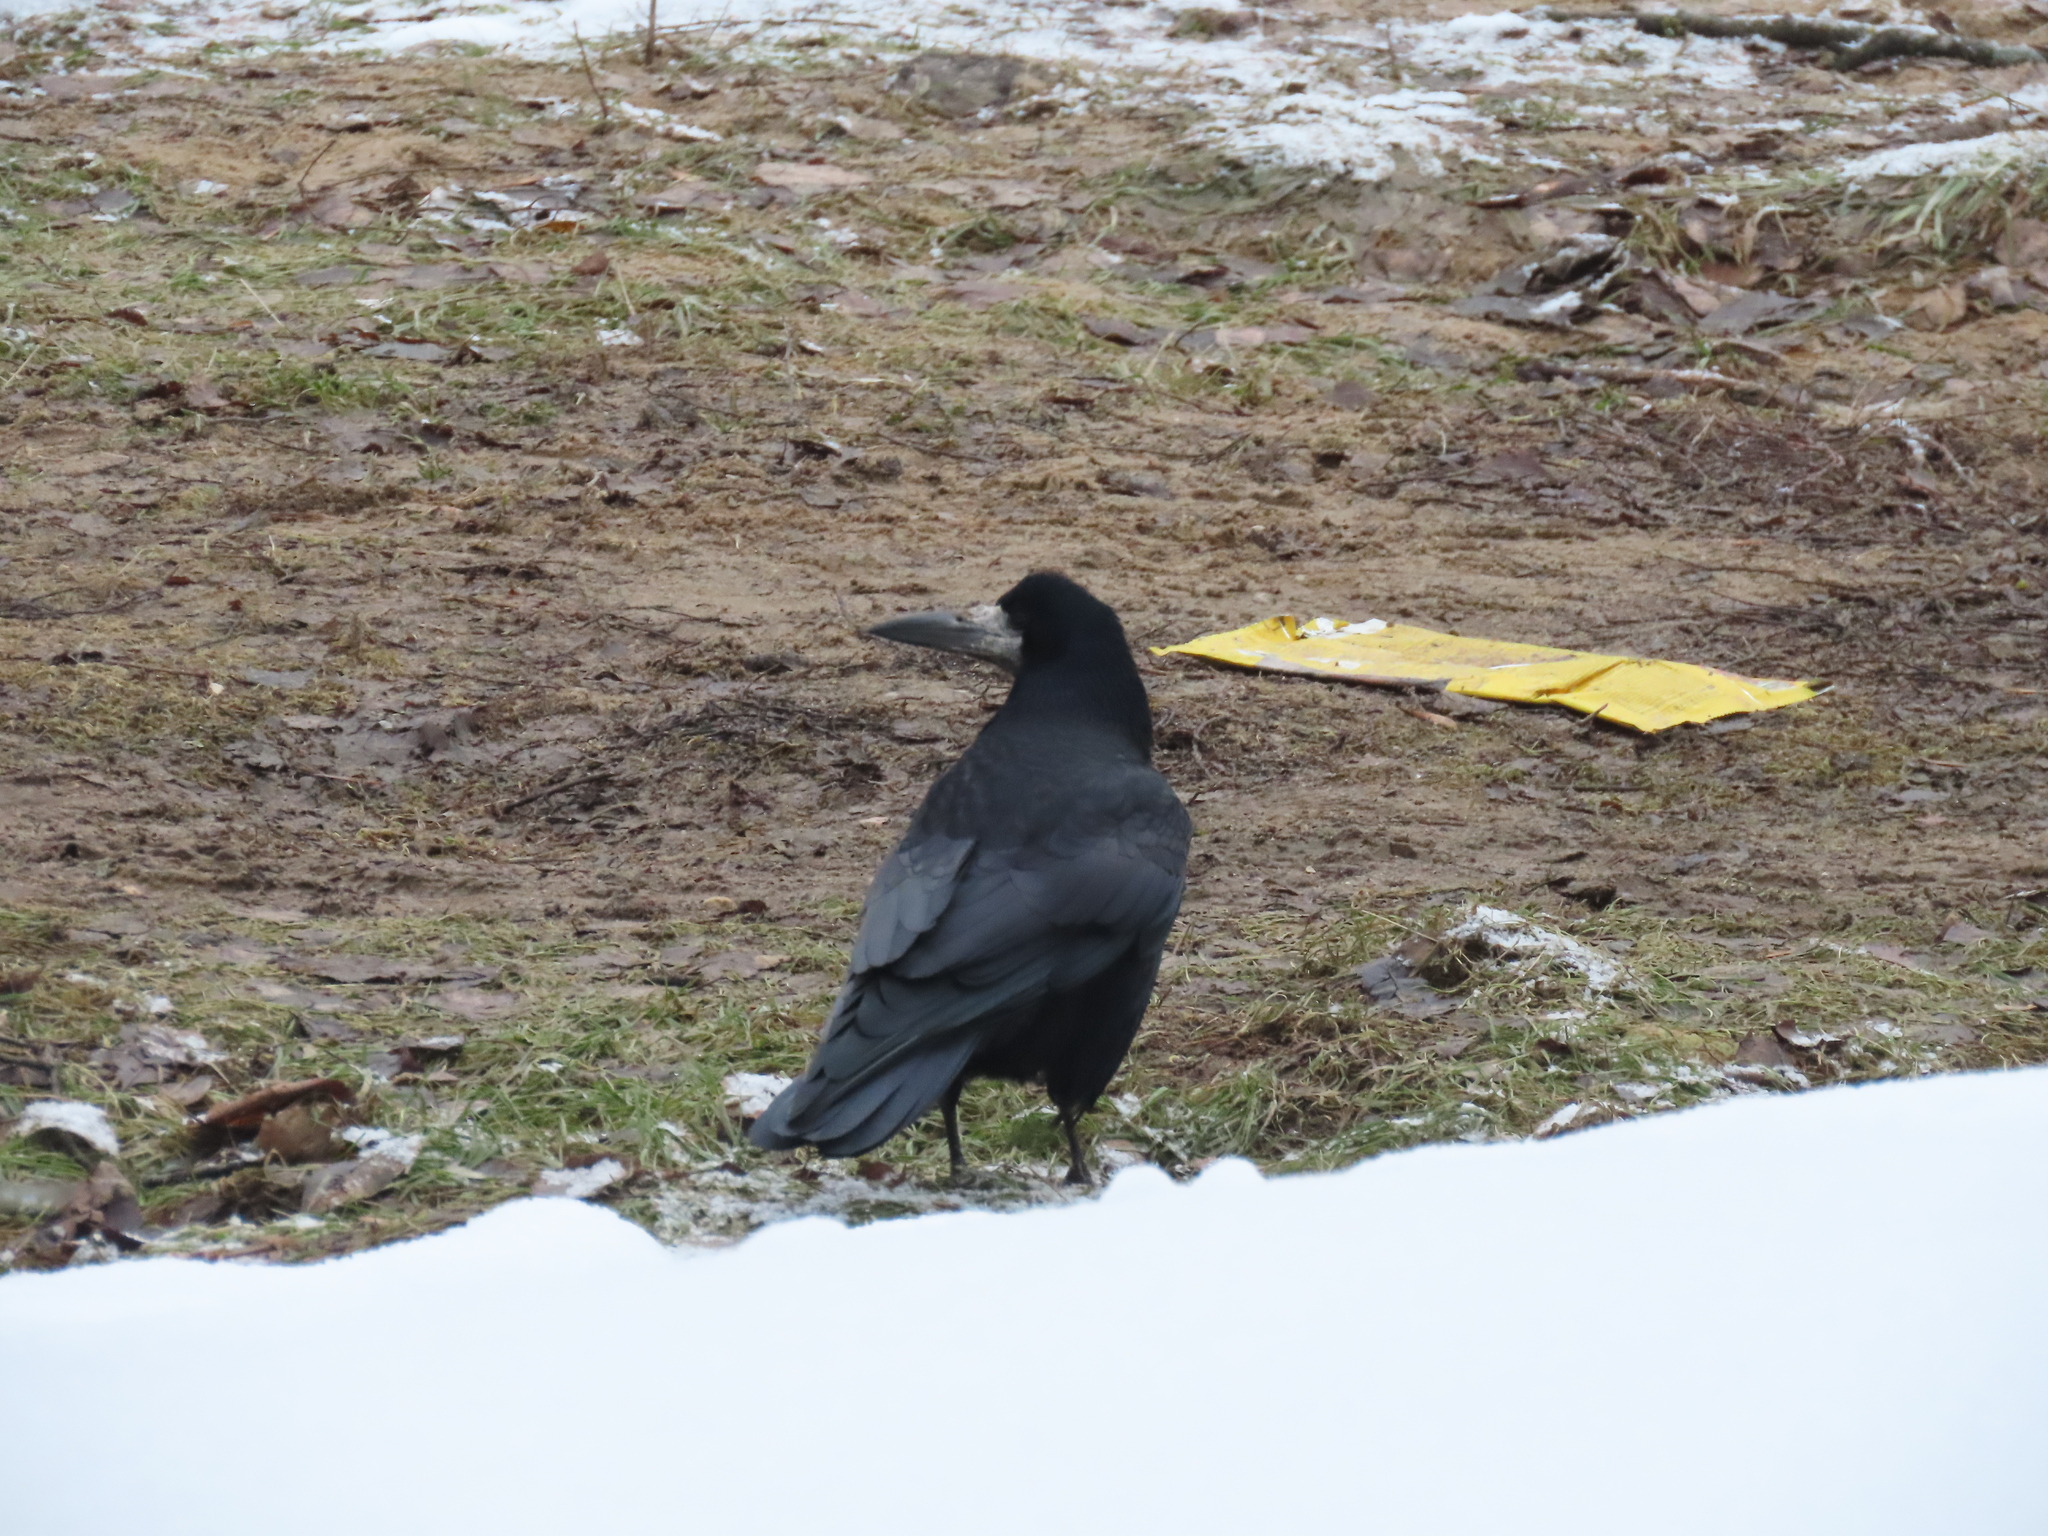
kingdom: Animalia
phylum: Chordata
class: Aves
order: Passeriformes
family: Corvidae
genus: Corvus
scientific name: Corvus frugilegus
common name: Rook
